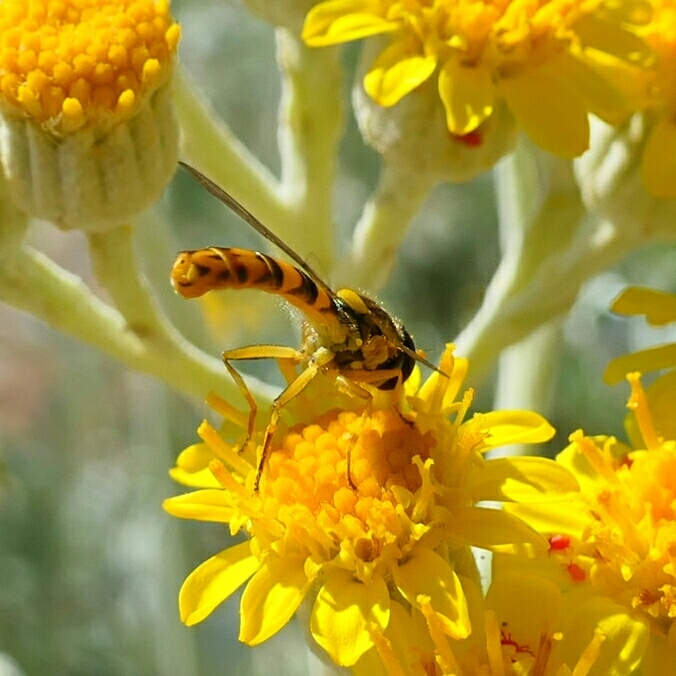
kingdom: Animalia
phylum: Arthropoda
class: Insecta
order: Diptera
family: Syrphidae
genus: Sphaerophoria
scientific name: Sphaerophoria scripta
